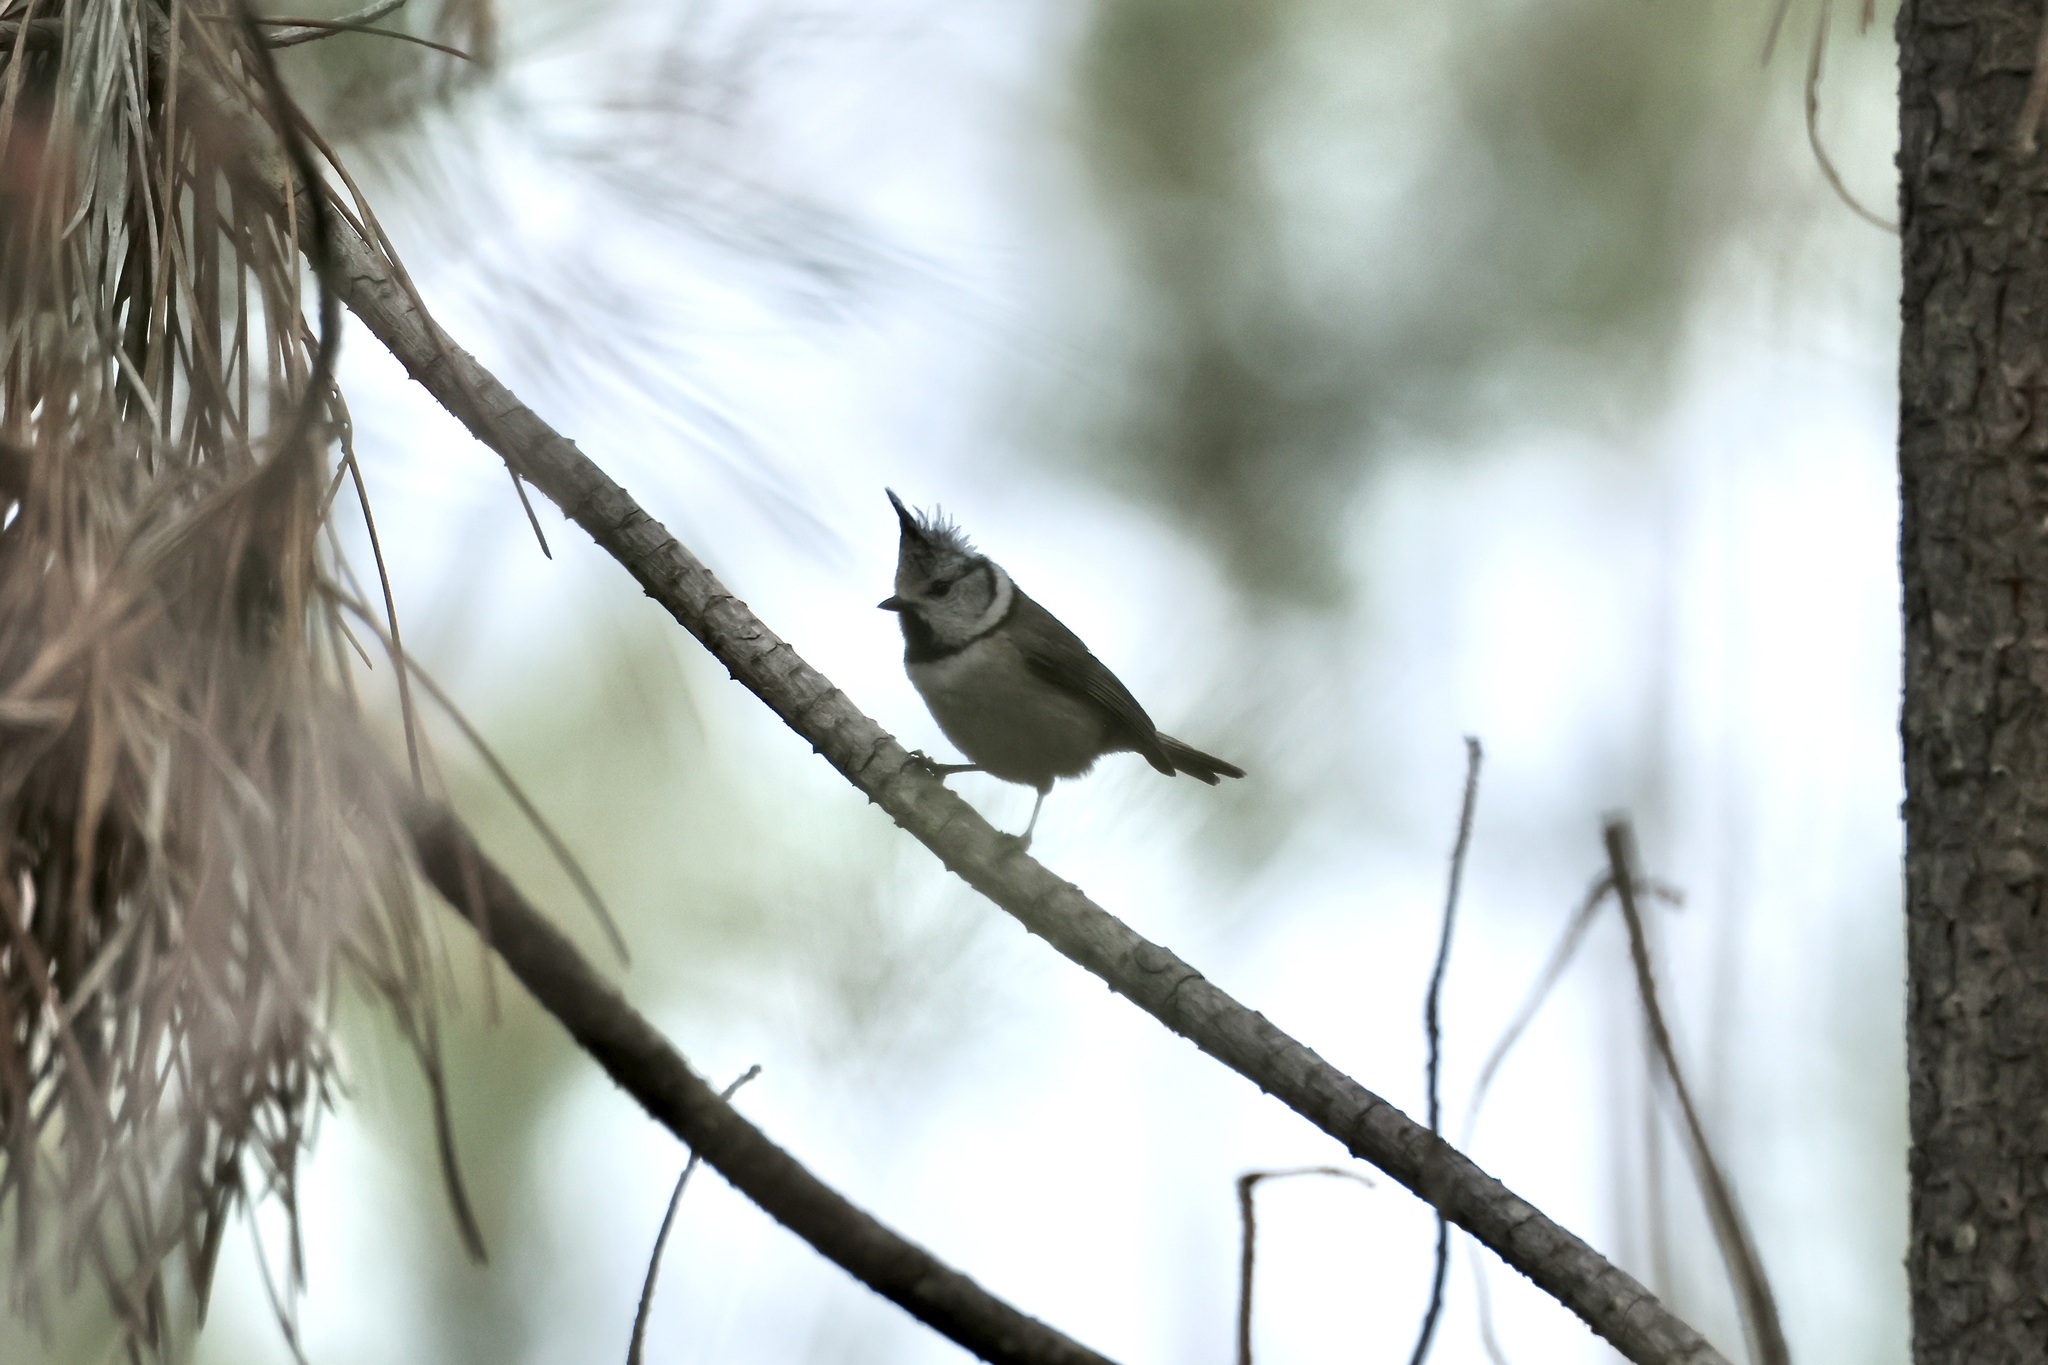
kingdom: Animalia
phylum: Chordata
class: Aves
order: Passeriformes
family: Paridae
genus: Lophophanes
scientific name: Lophophanes cristatus
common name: European crested tit
